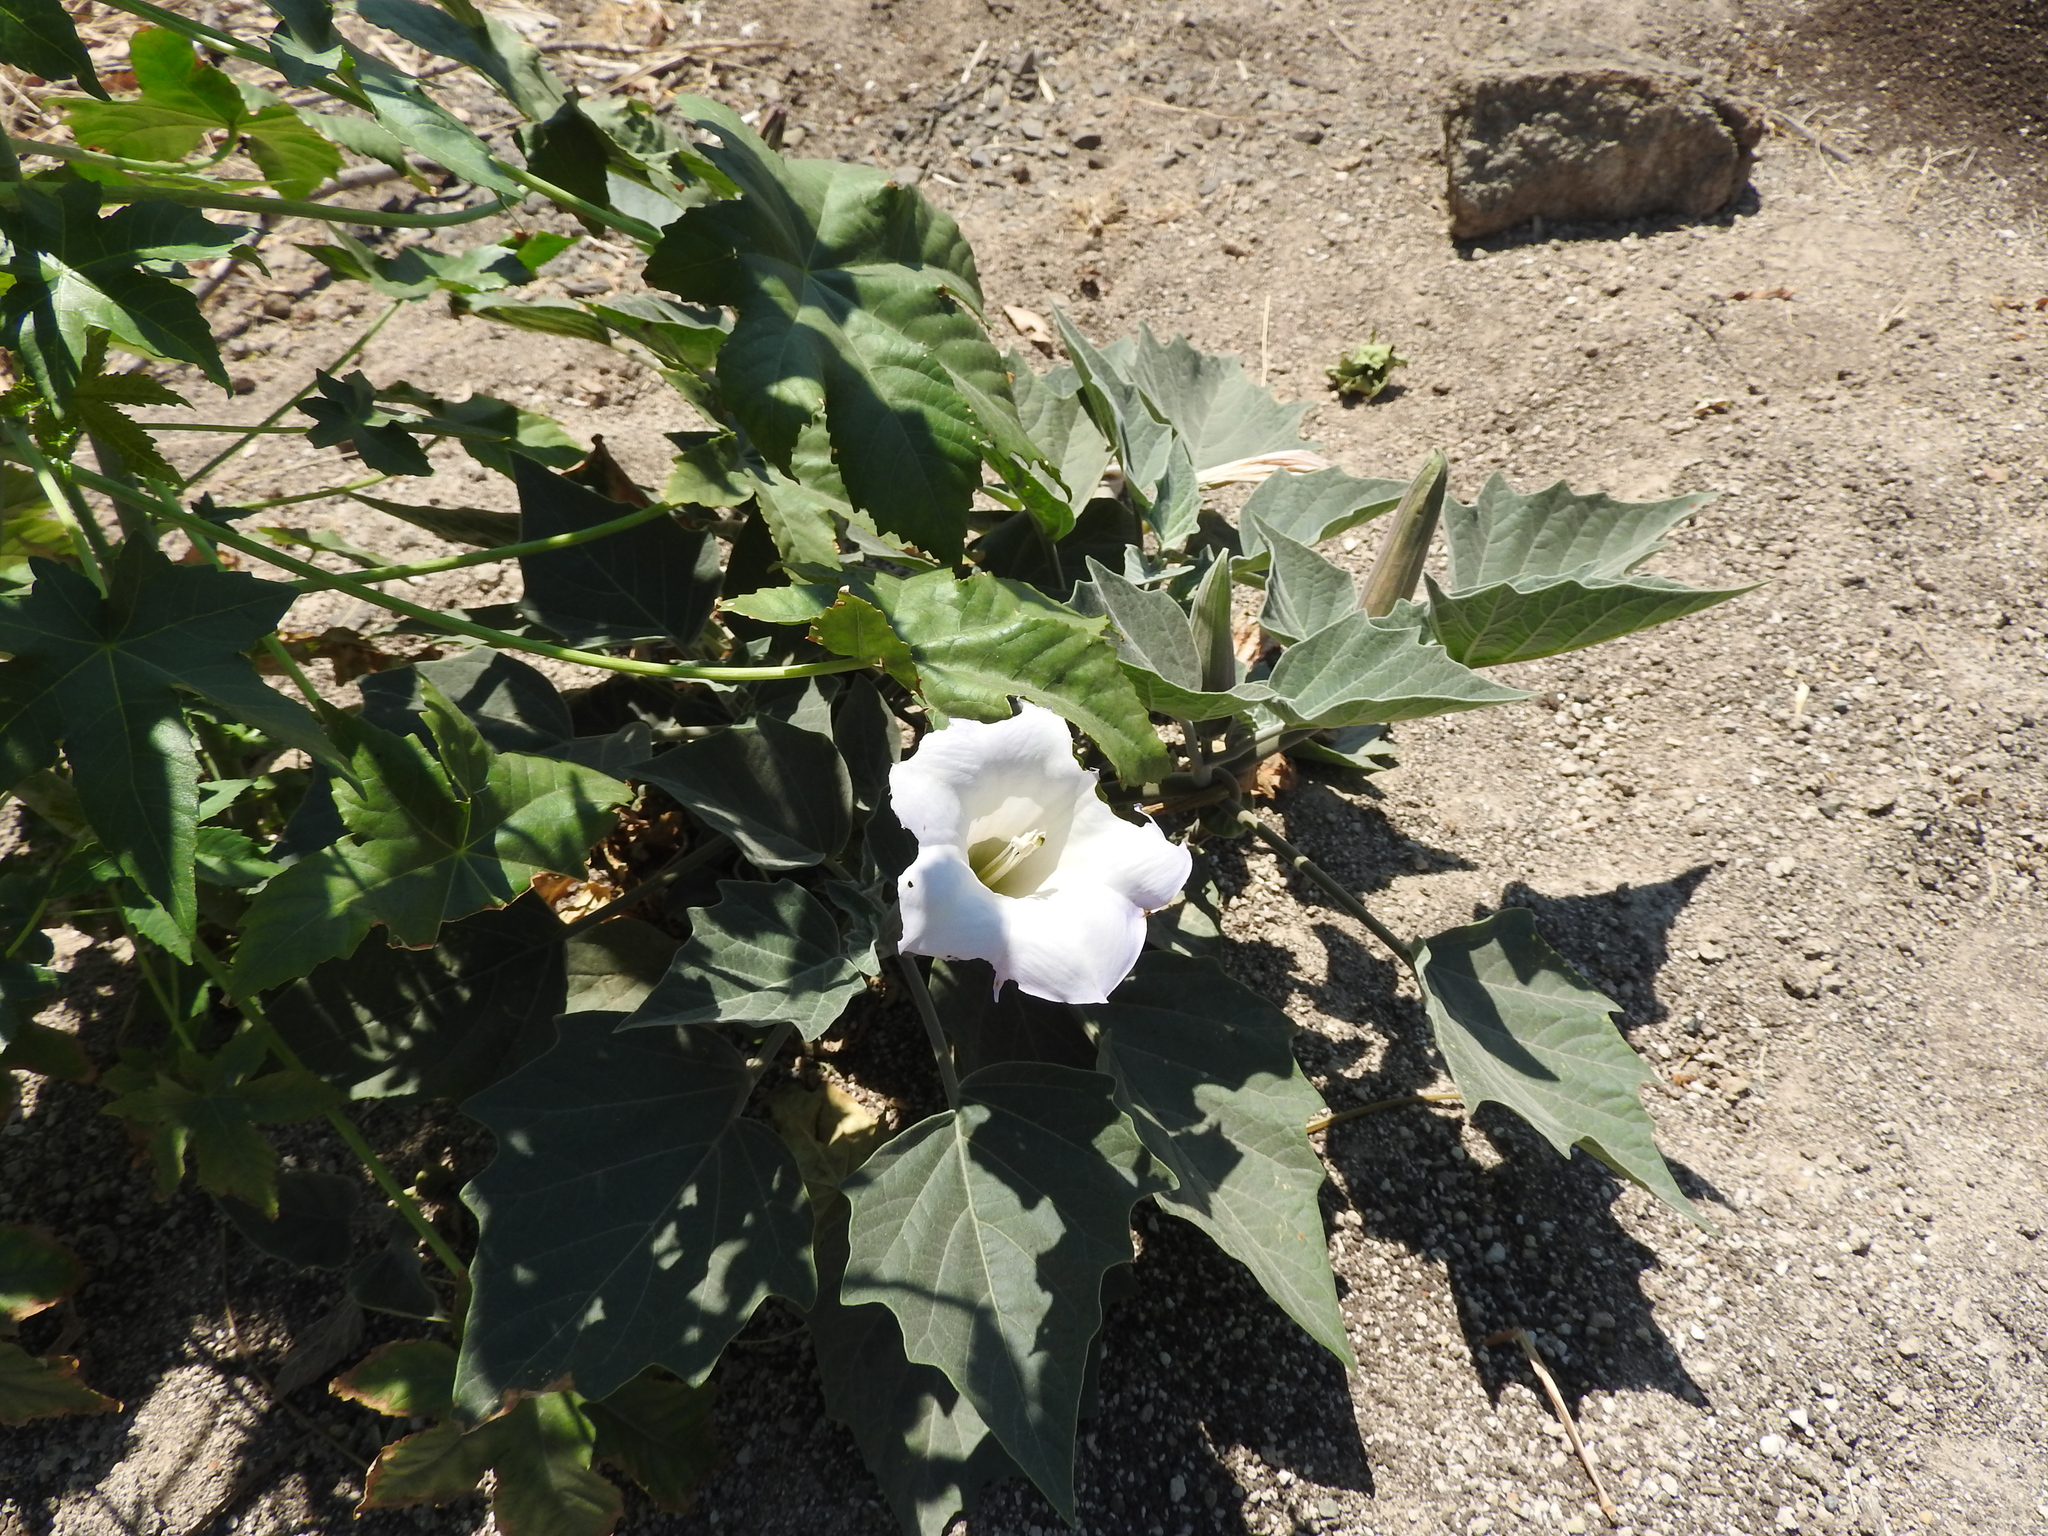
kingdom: Plantae
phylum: Tracheophyta
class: Magnoliopsida
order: Solanales
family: Solanaceae
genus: Datura
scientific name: Datura innoxia
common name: Downy thorn-apple
